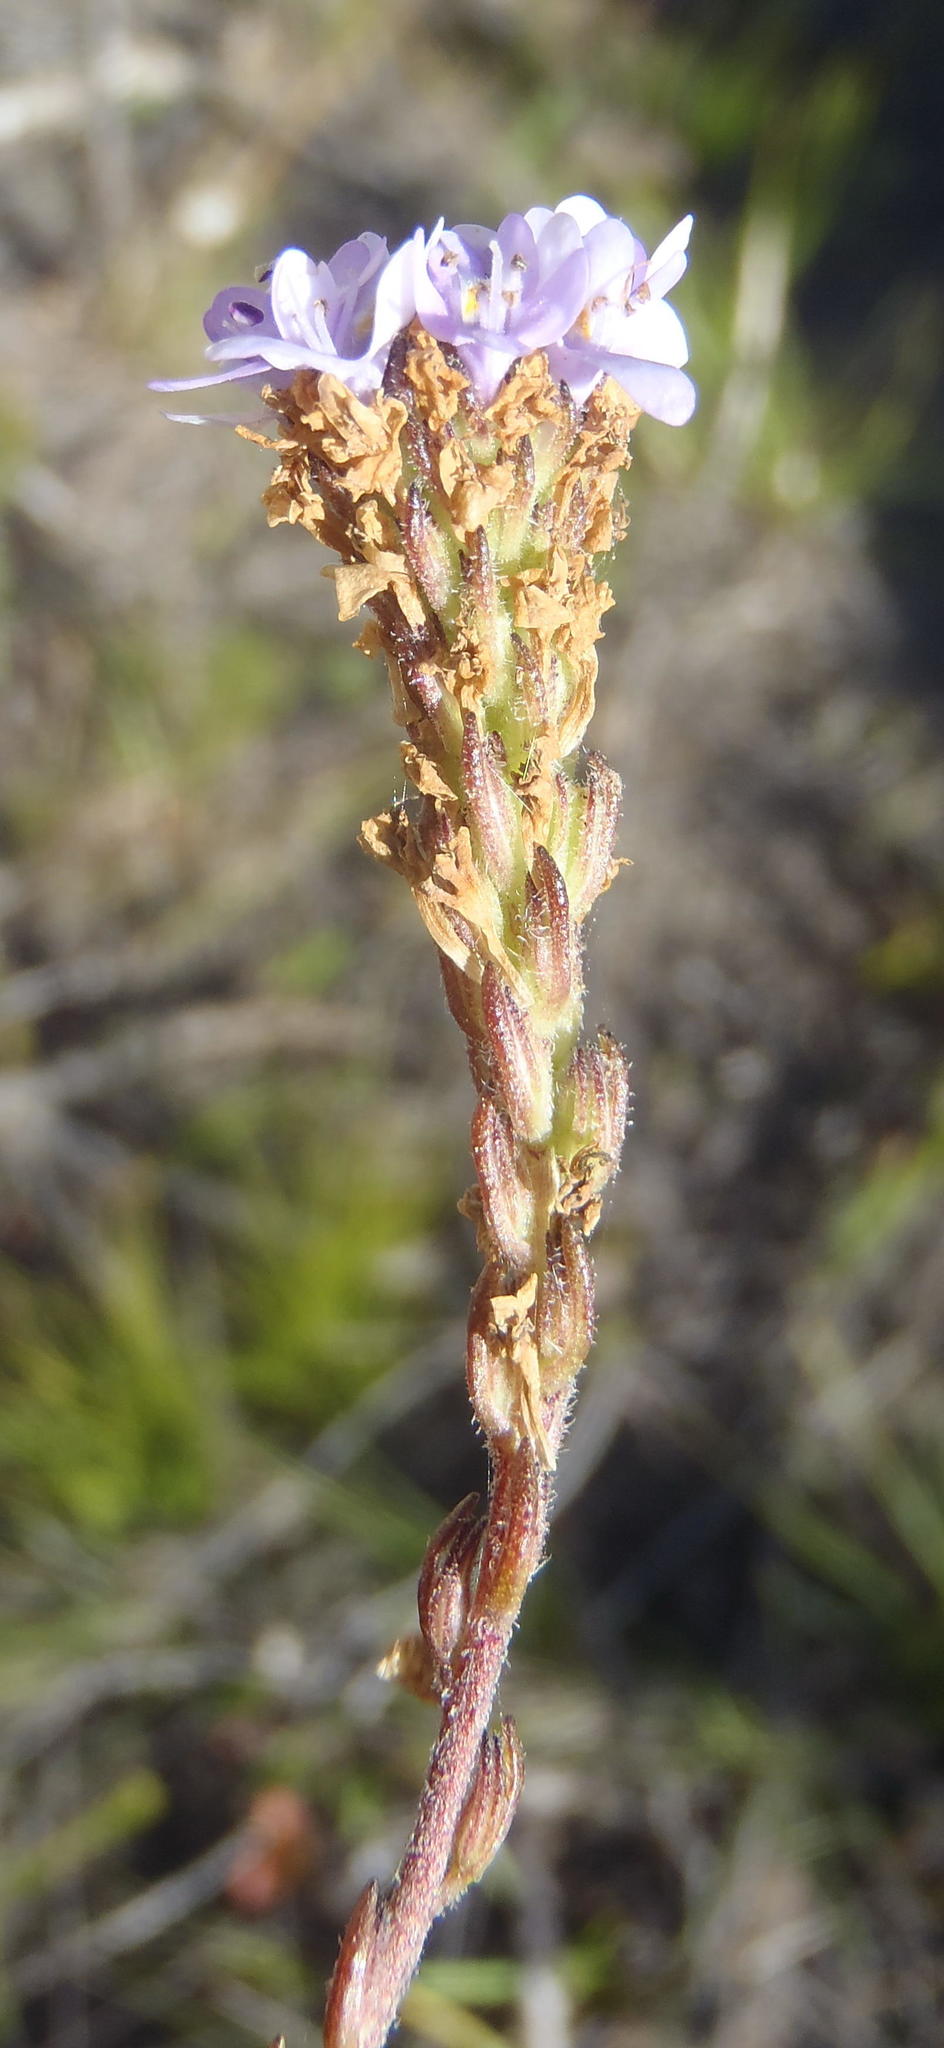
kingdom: Plantae
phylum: Tracheophyta
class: Magnoliopsida
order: Lamiales
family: Scrophulariaceae
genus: Pseudoselago
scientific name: Pseudoselago bella
